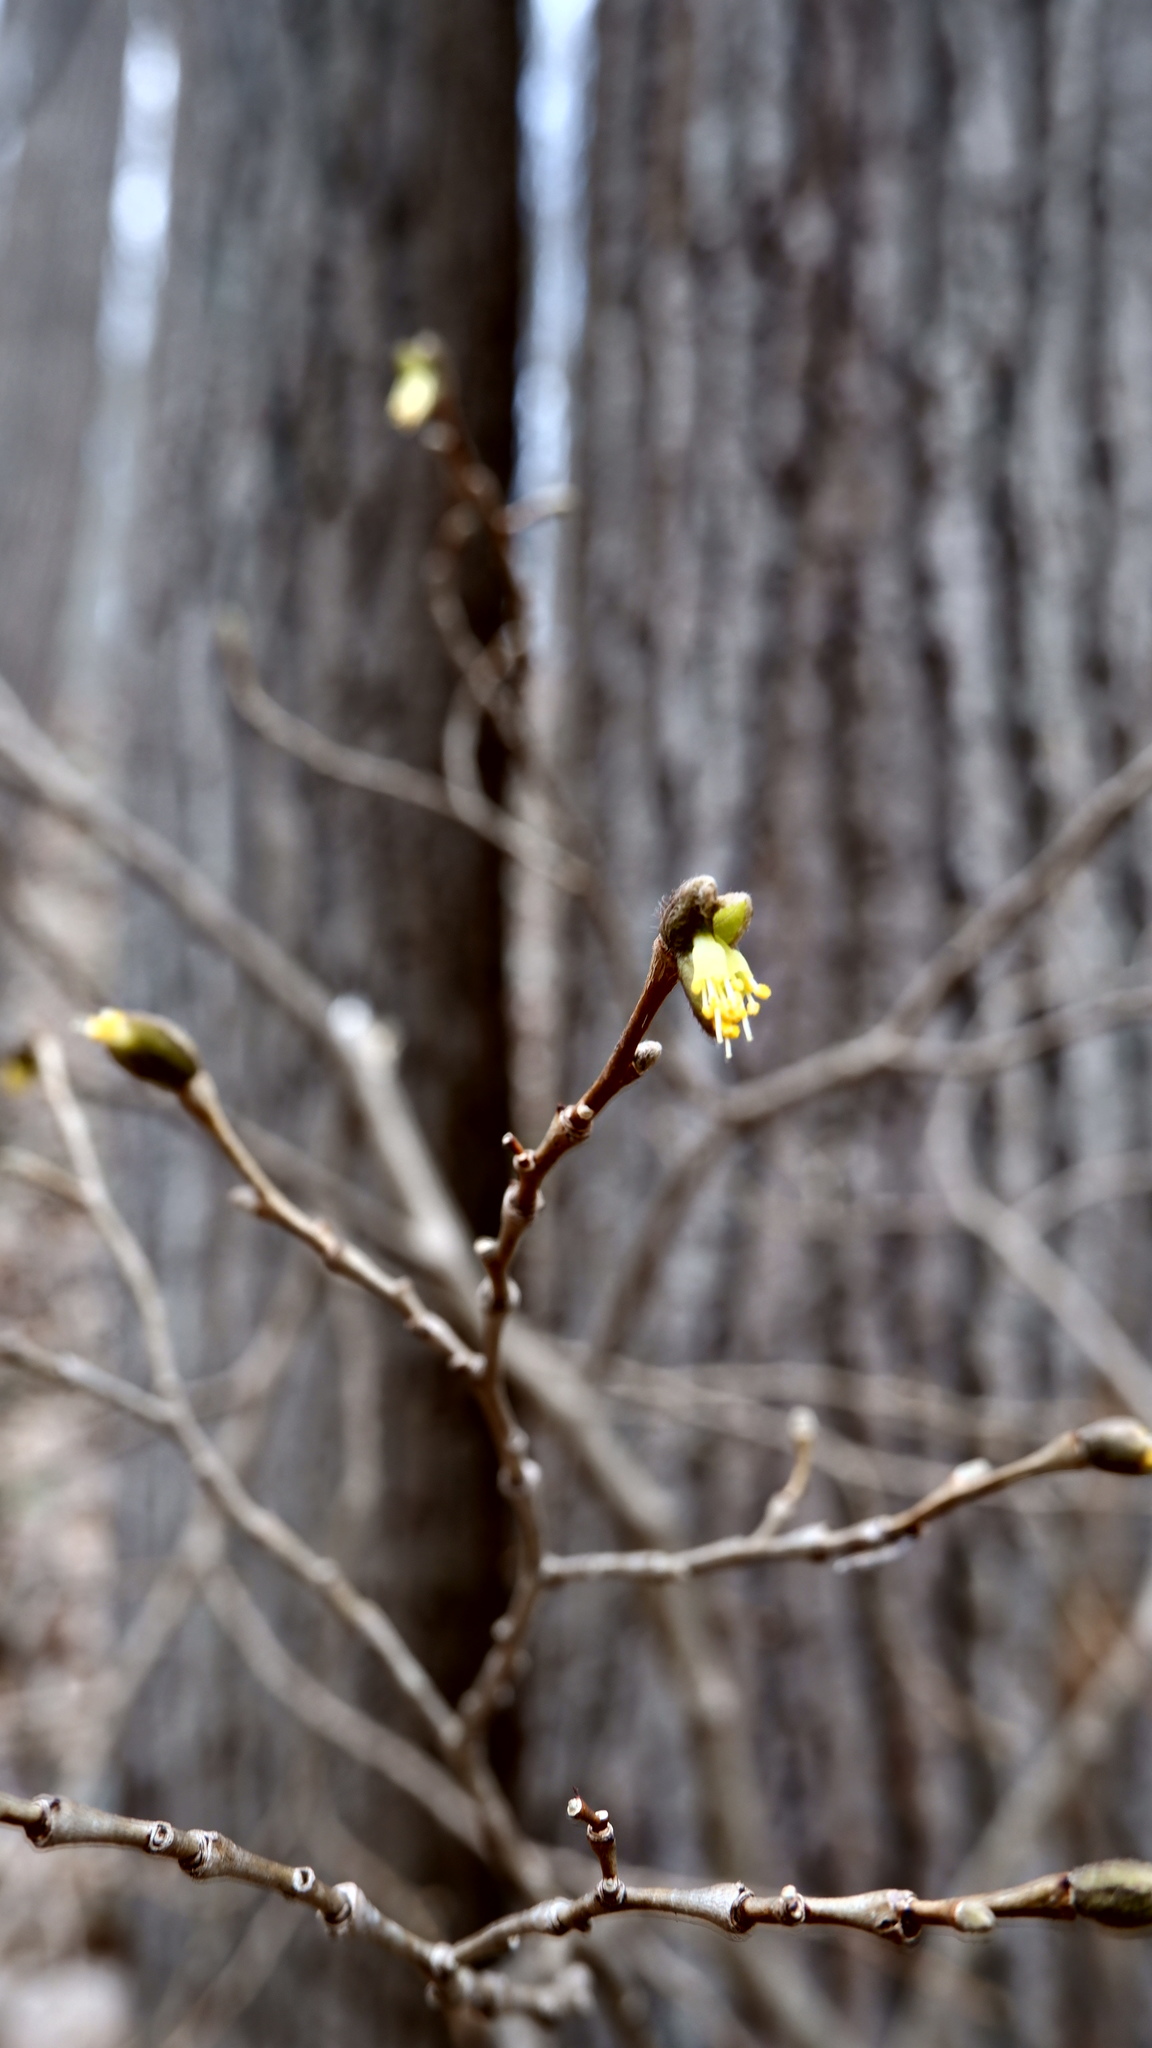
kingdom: Plantae
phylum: Tracheophyta
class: Magnoliopsida
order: Malvales
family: Thymelaeaceae
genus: Dirca
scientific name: Dirca palustris
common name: Leatherwood
